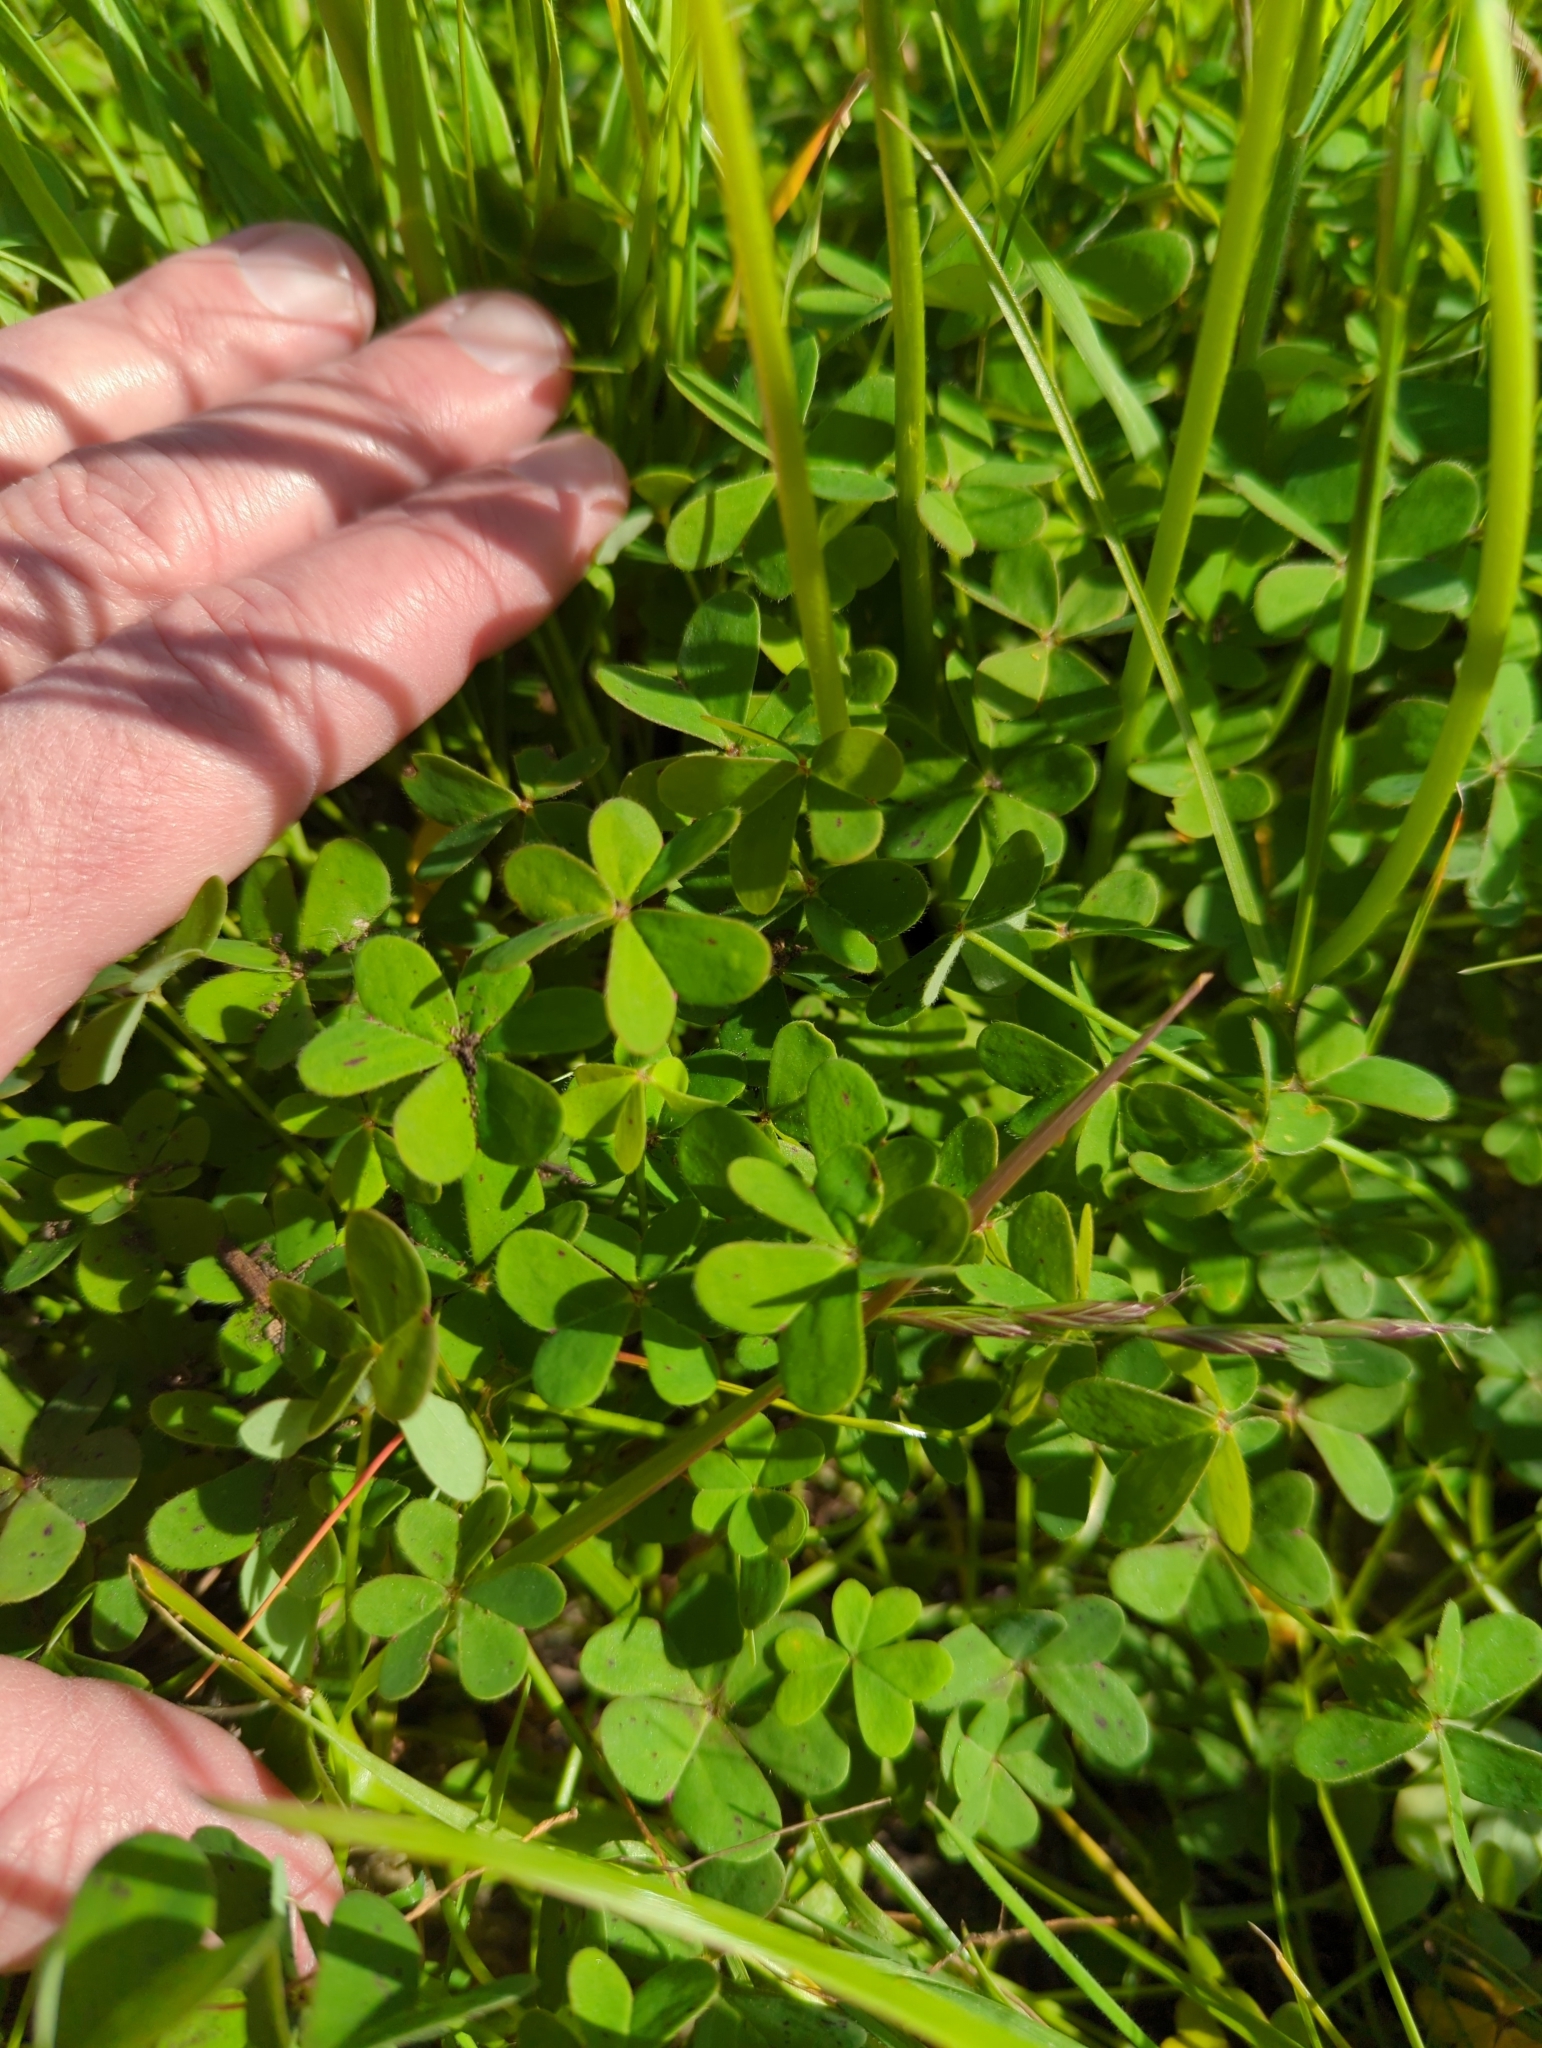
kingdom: Plantae
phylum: Tracheophyta
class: Magnoliopsida
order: Oxalidales
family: Oxalidaceae
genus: Oxalis
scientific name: Oxalis pes-caprae
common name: Bermuda-buttercup
